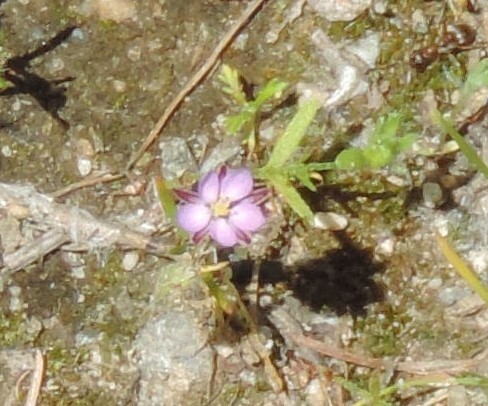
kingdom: Plantae
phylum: Tracheophyta
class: Magnoliopsida
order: Caryophyllales
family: Caryophyllaceae
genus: Spergularia
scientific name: Spergularia rubra
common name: Red sand-spurrey
